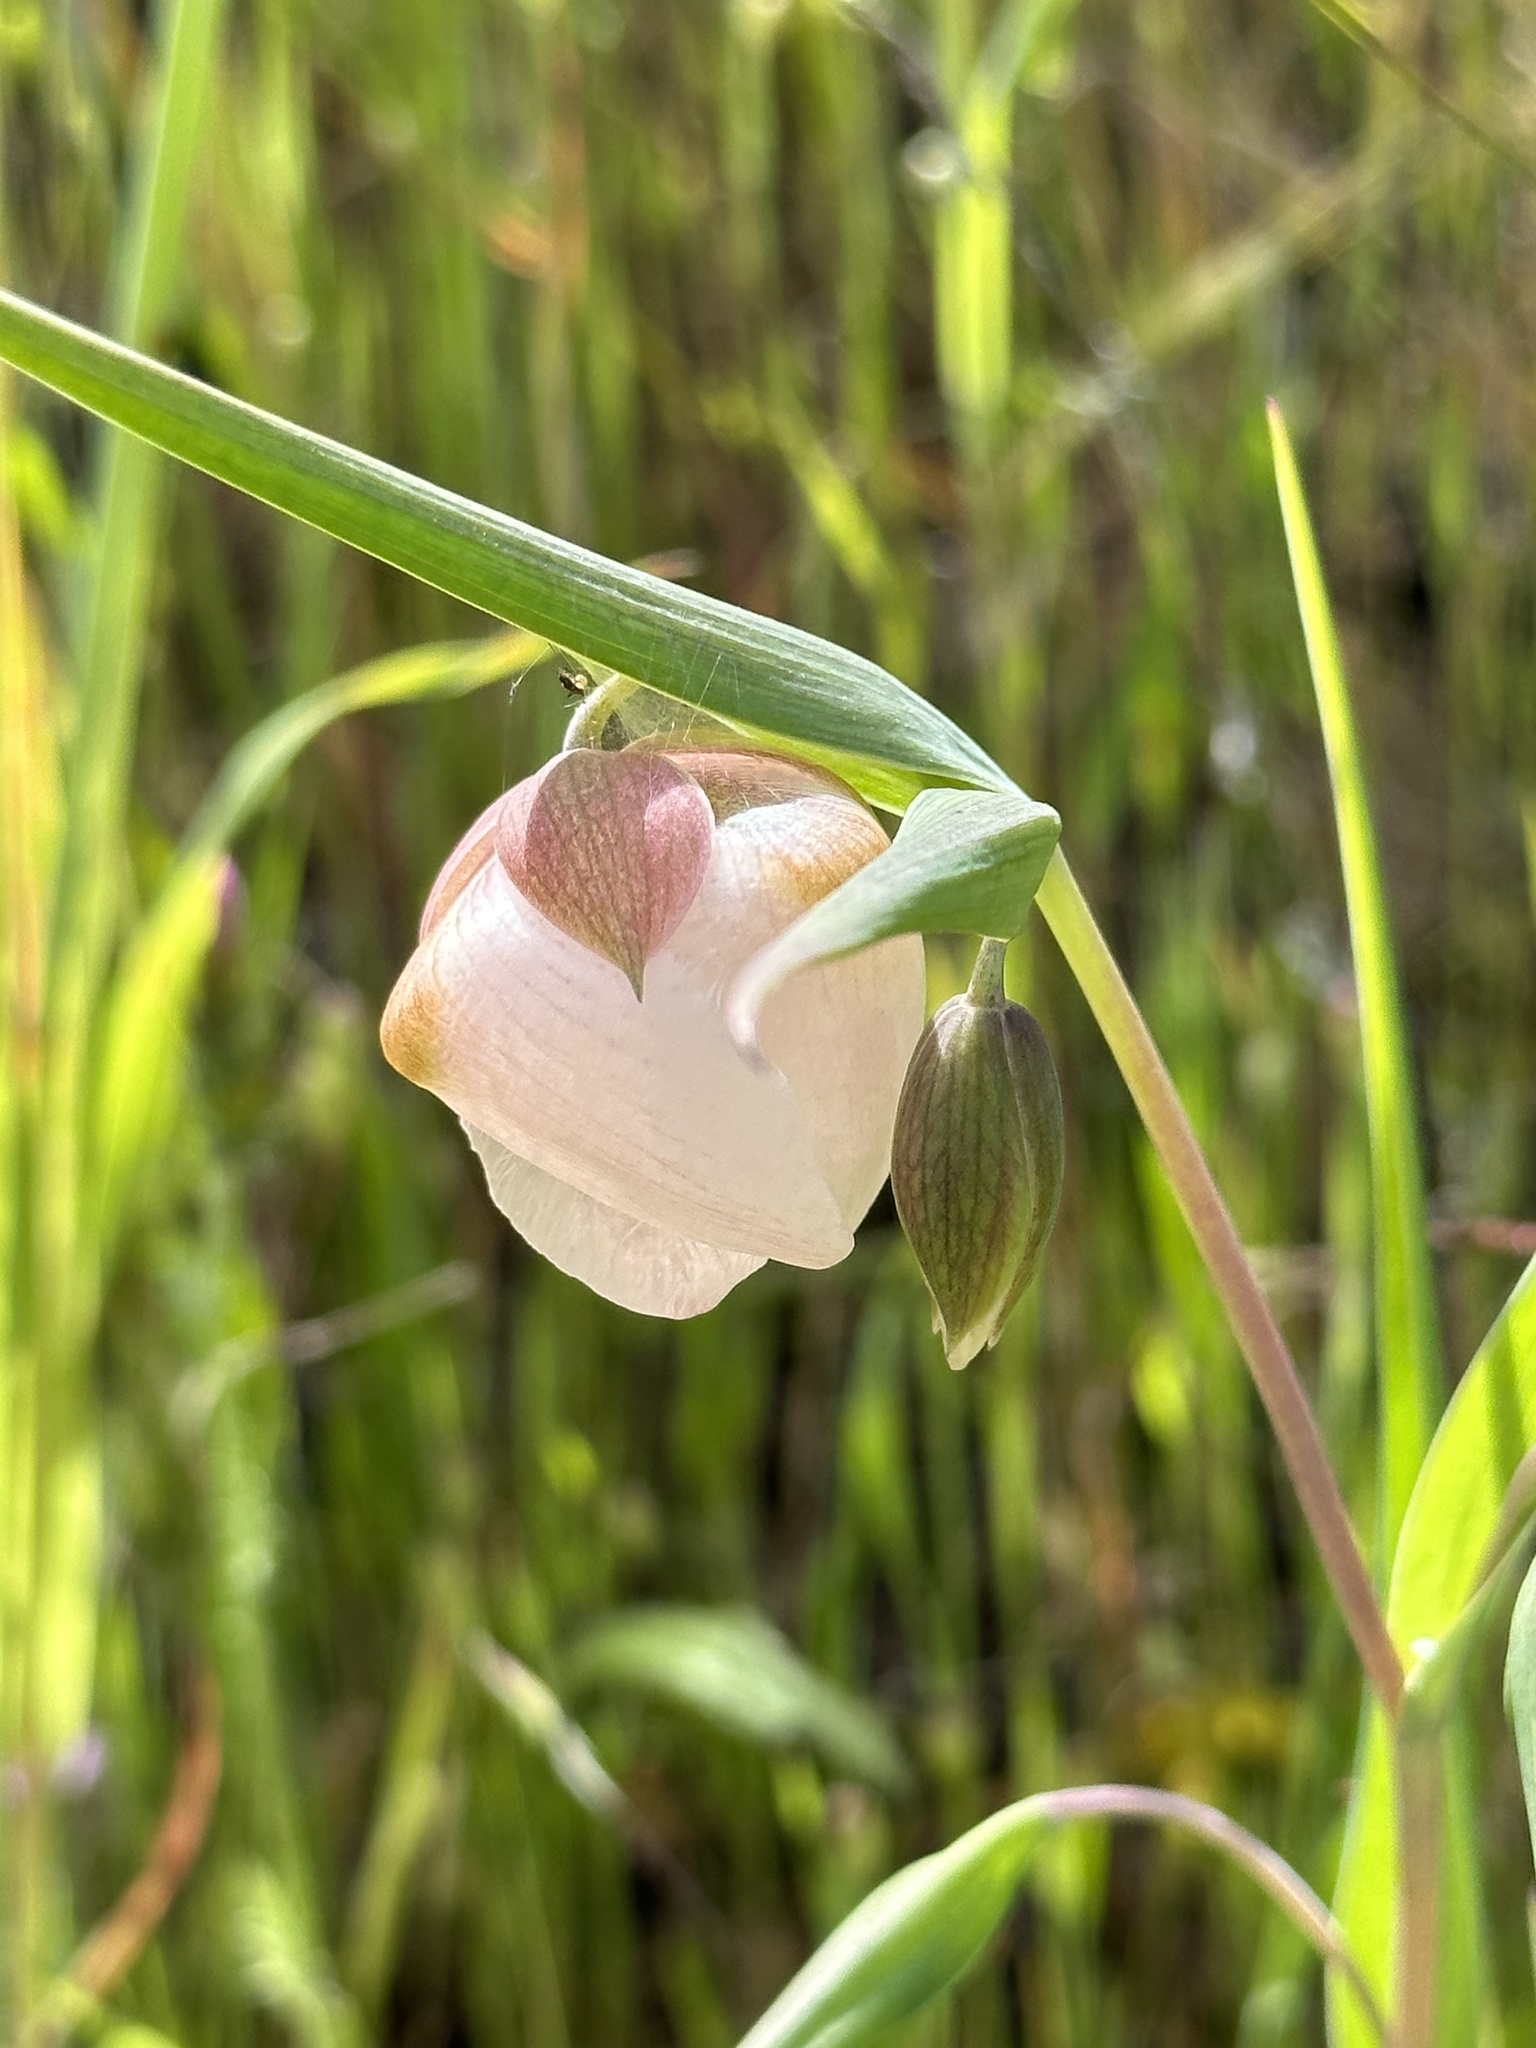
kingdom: Plantae
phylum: Tracheophyta
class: Liliopsida
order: Liliales
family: Liliaceae
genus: Calochortus
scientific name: Calochortus albus
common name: Fairy-lantern
